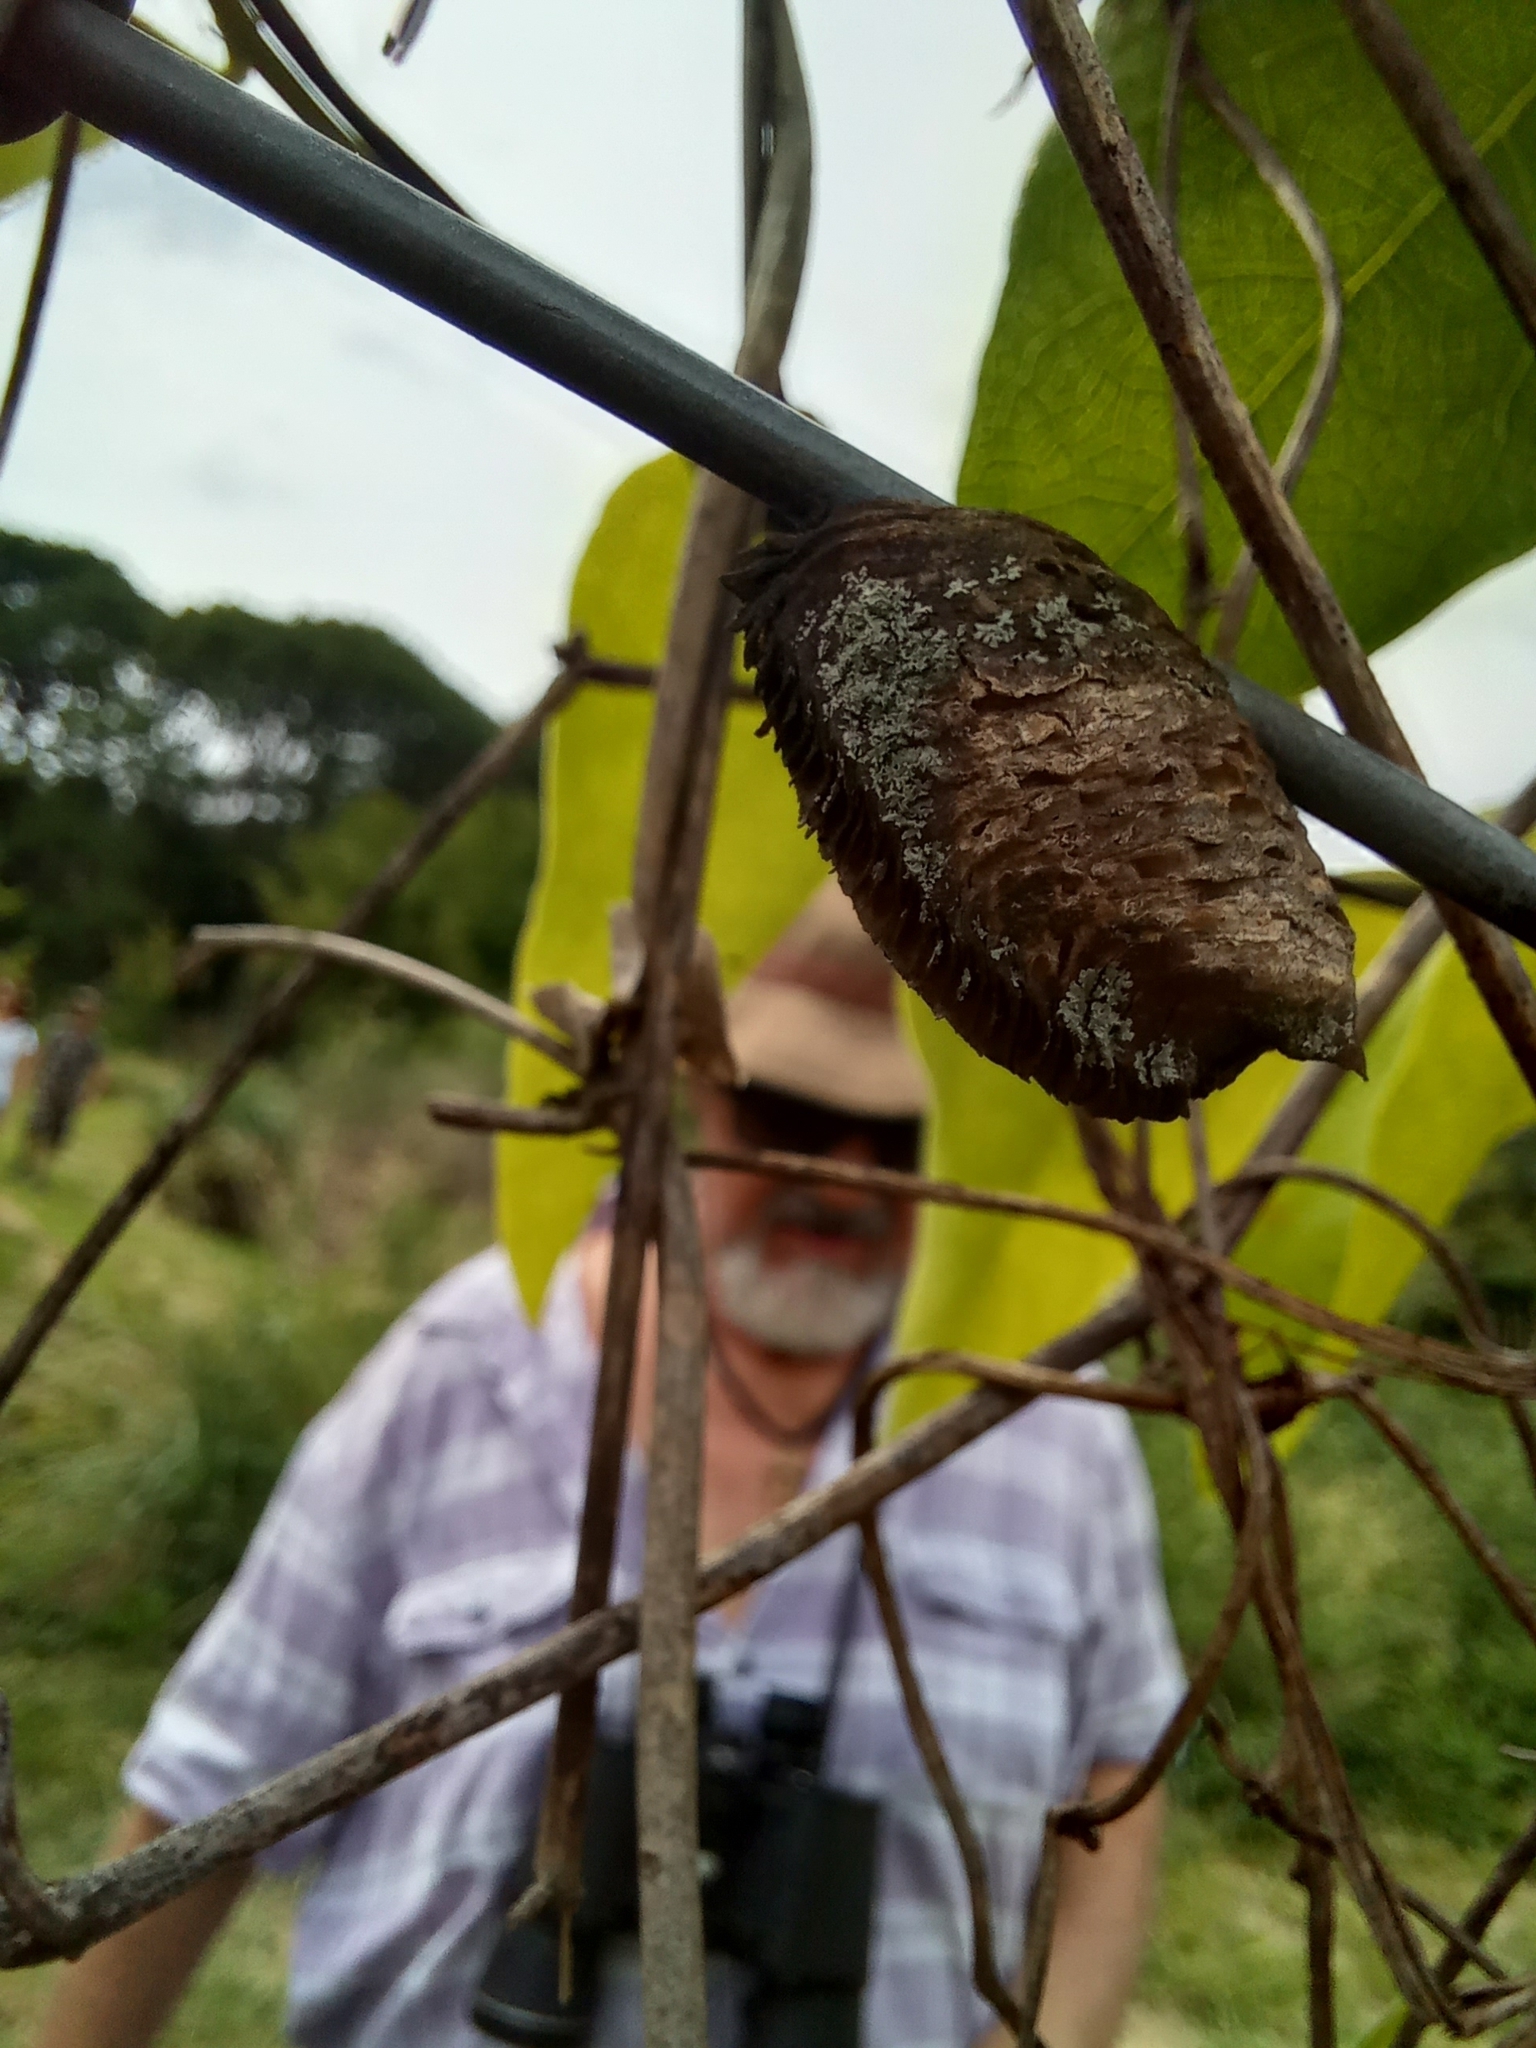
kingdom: Animalia
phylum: Arthropoda
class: Insecta
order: Mantodea
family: Mantidae
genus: Stagmatoptera
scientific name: Stagmatoptera hyaloptera
